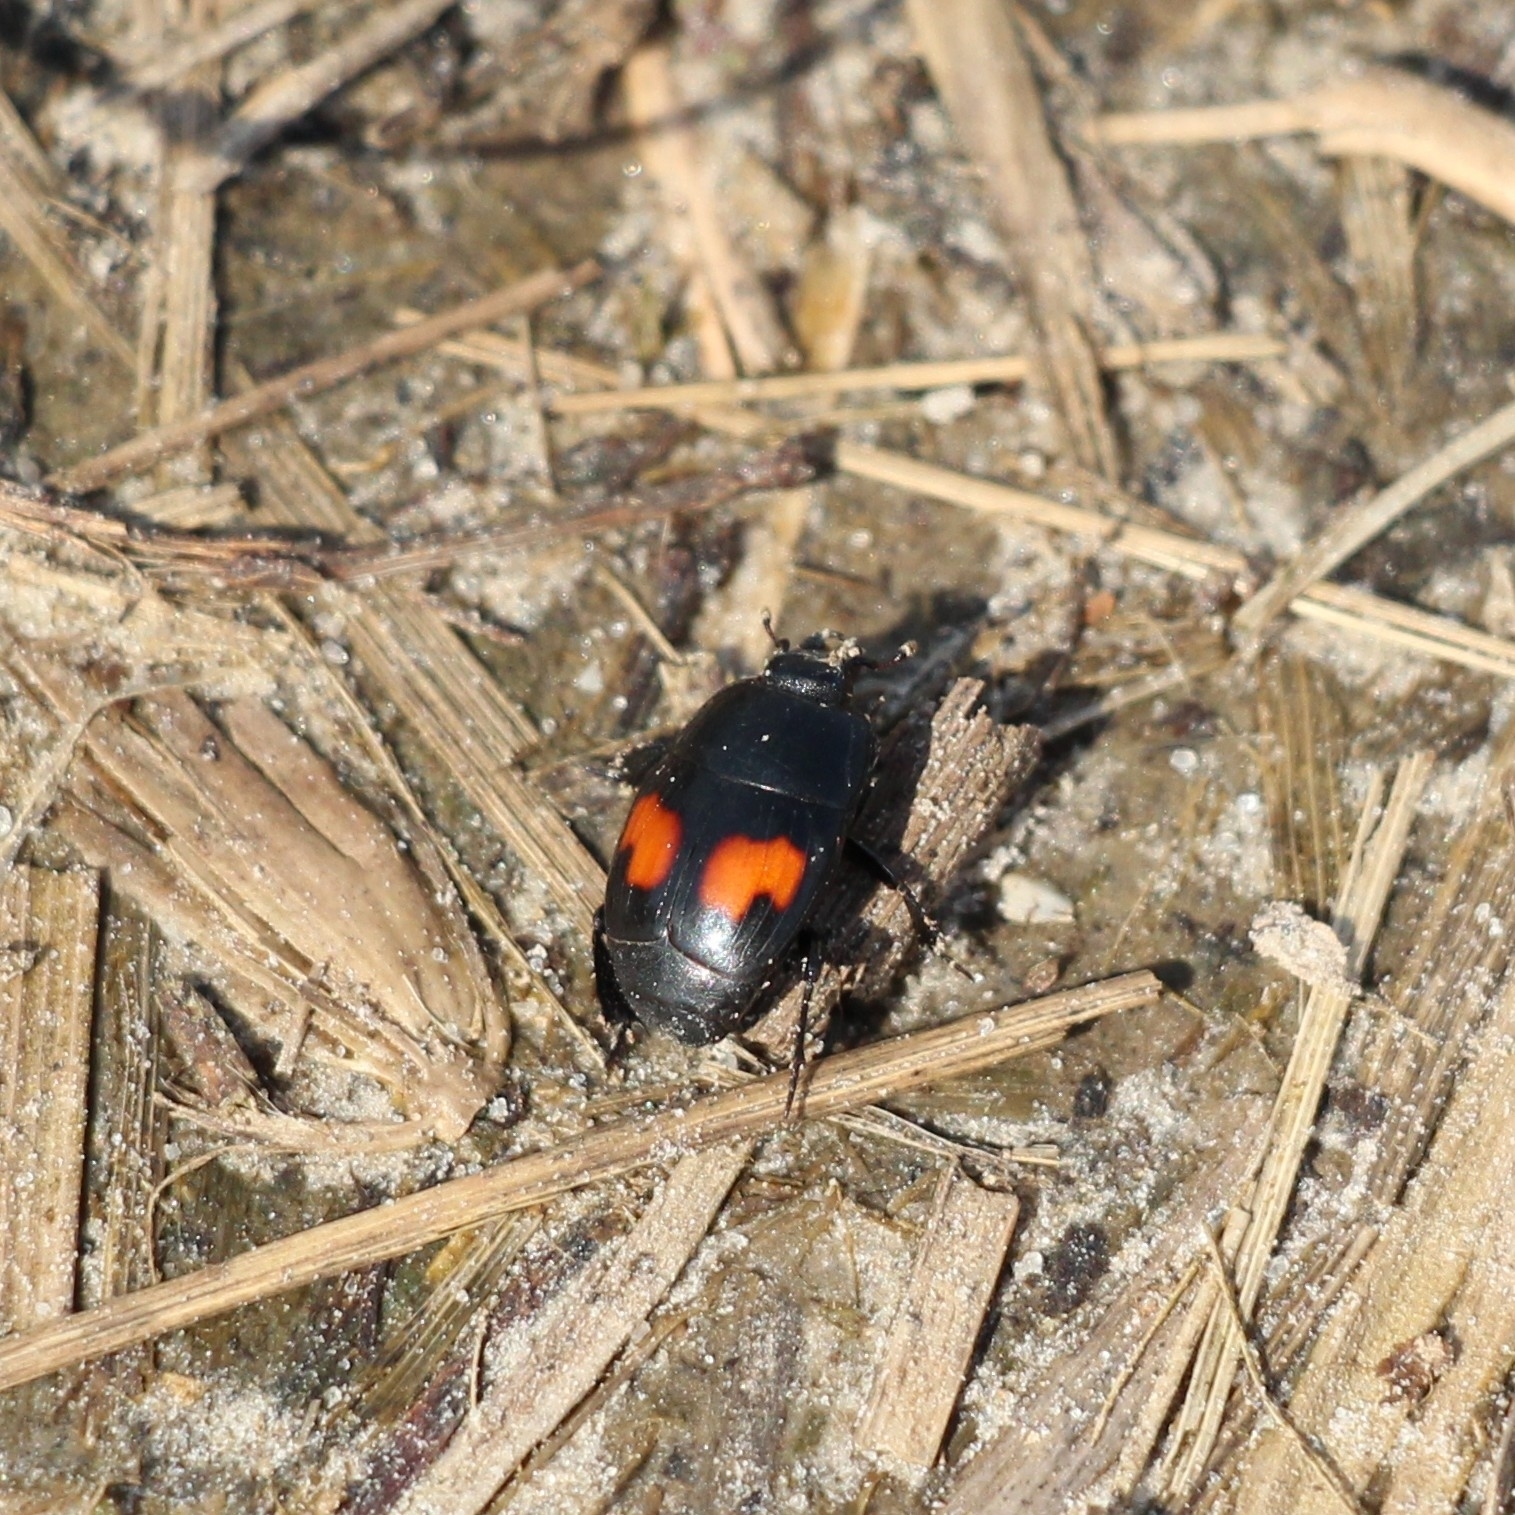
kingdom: Animalia
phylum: Arthropoda
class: Insecta
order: Coleoptera
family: Histeridae
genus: Margarinotus
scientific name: Margarinotus bipustulatus
